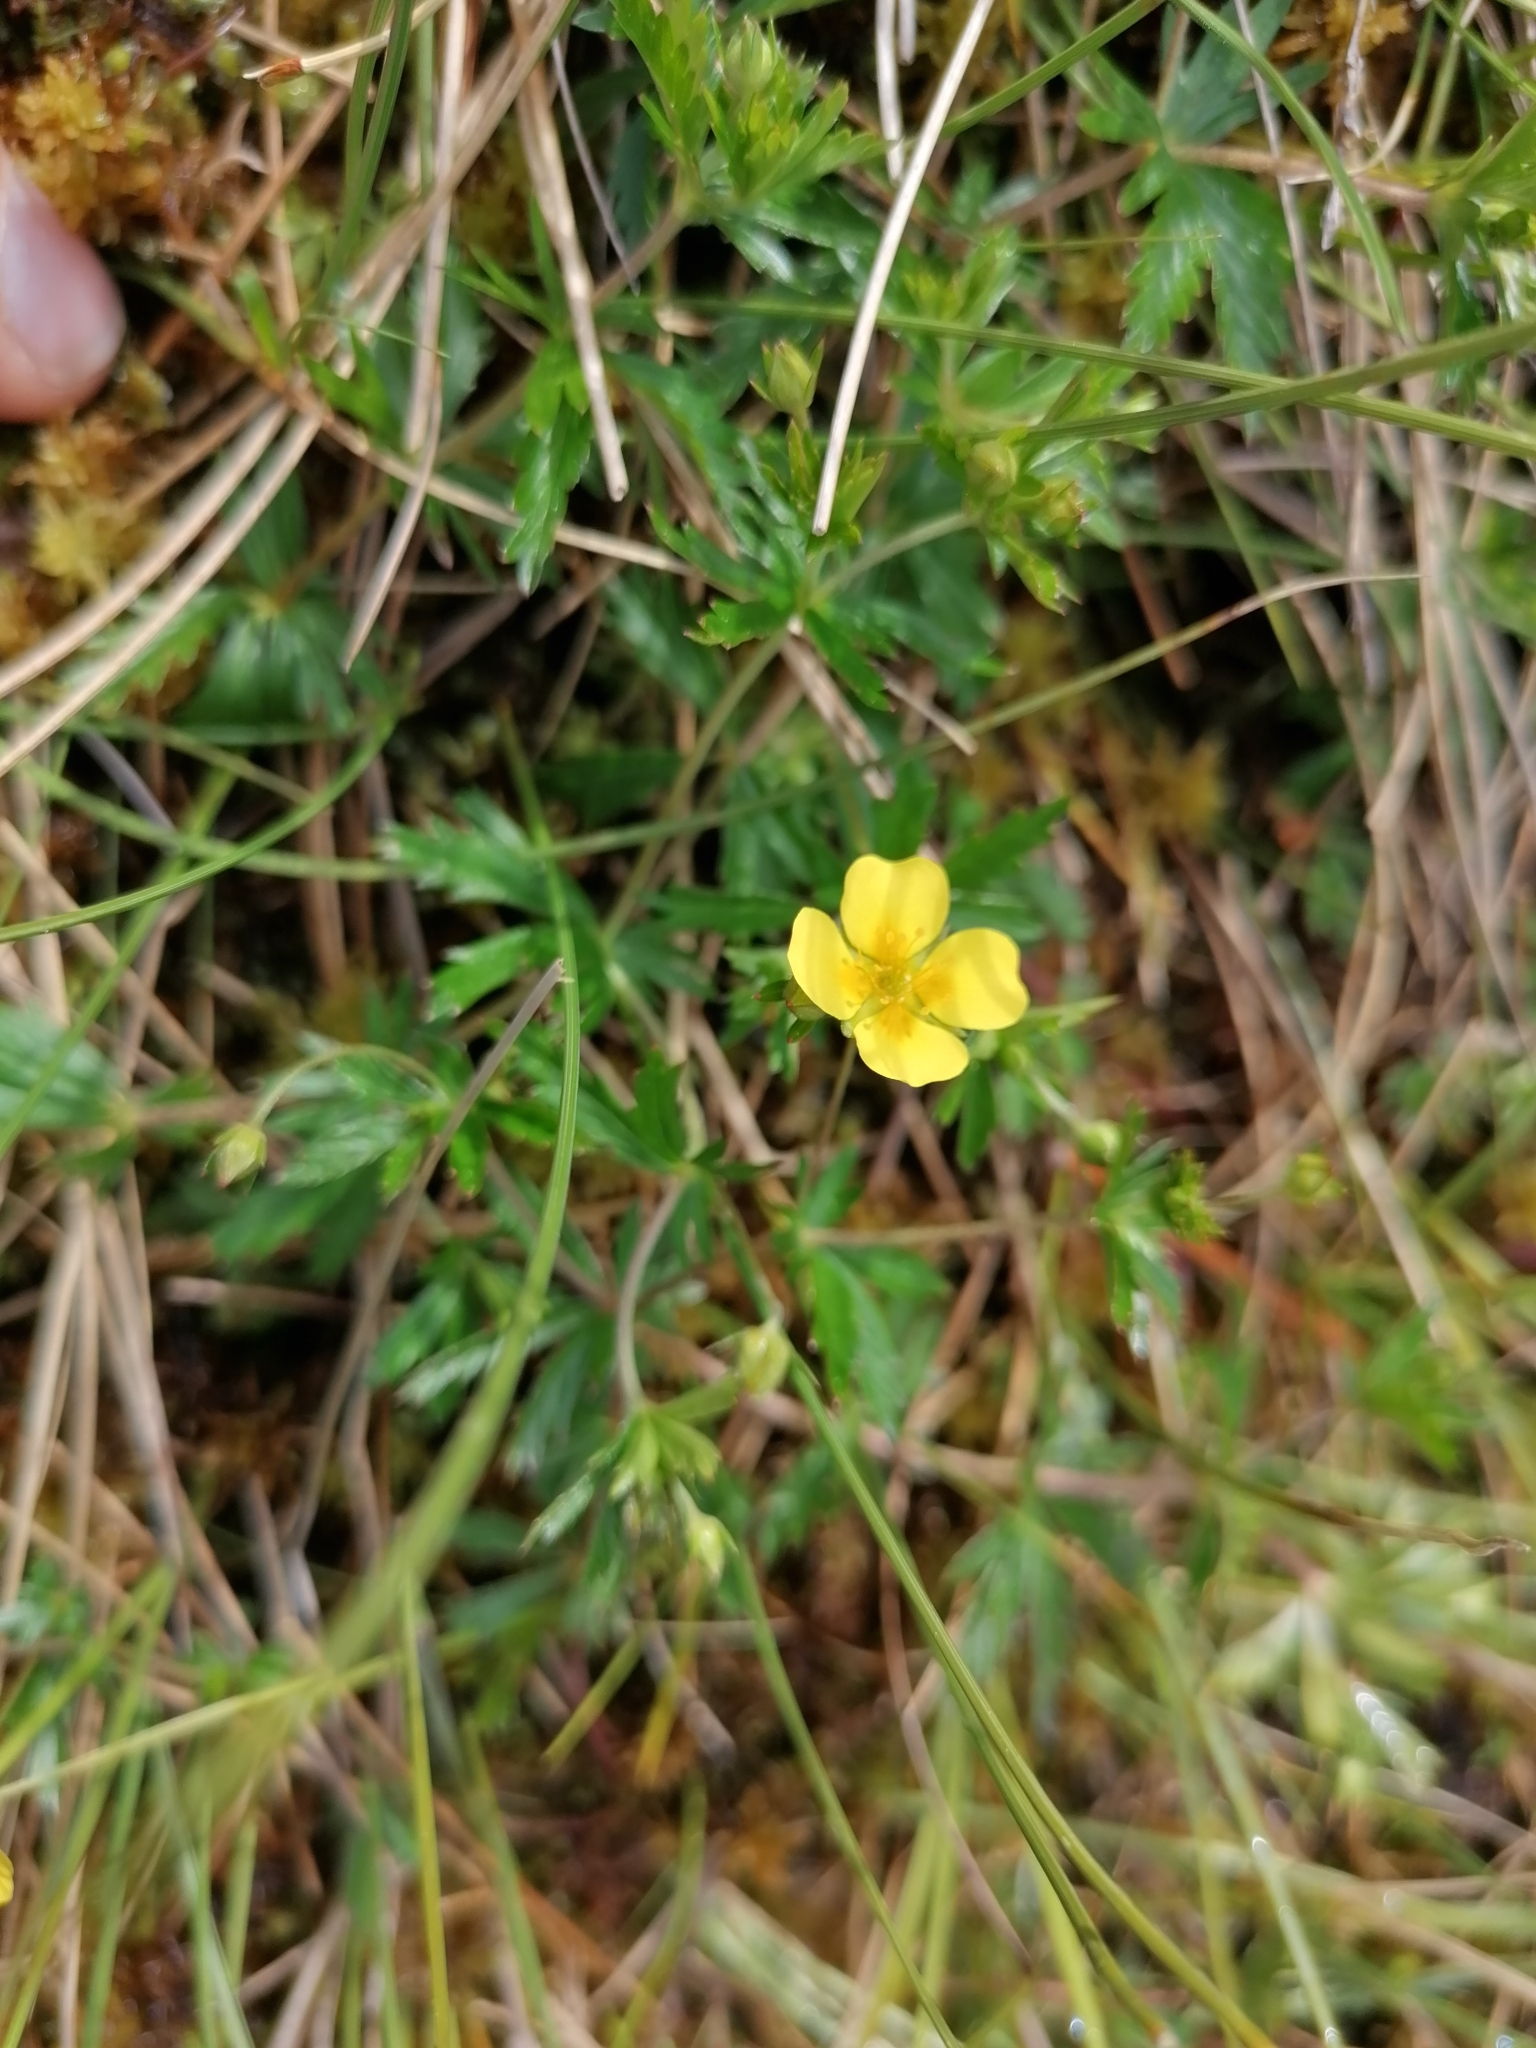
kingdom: Plantae
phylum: Tracheophyta
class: Magnoliopsida
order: Rosales
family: Rosaceae
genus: Potentilla
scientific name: Potentilla erecta
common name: Tormentil
